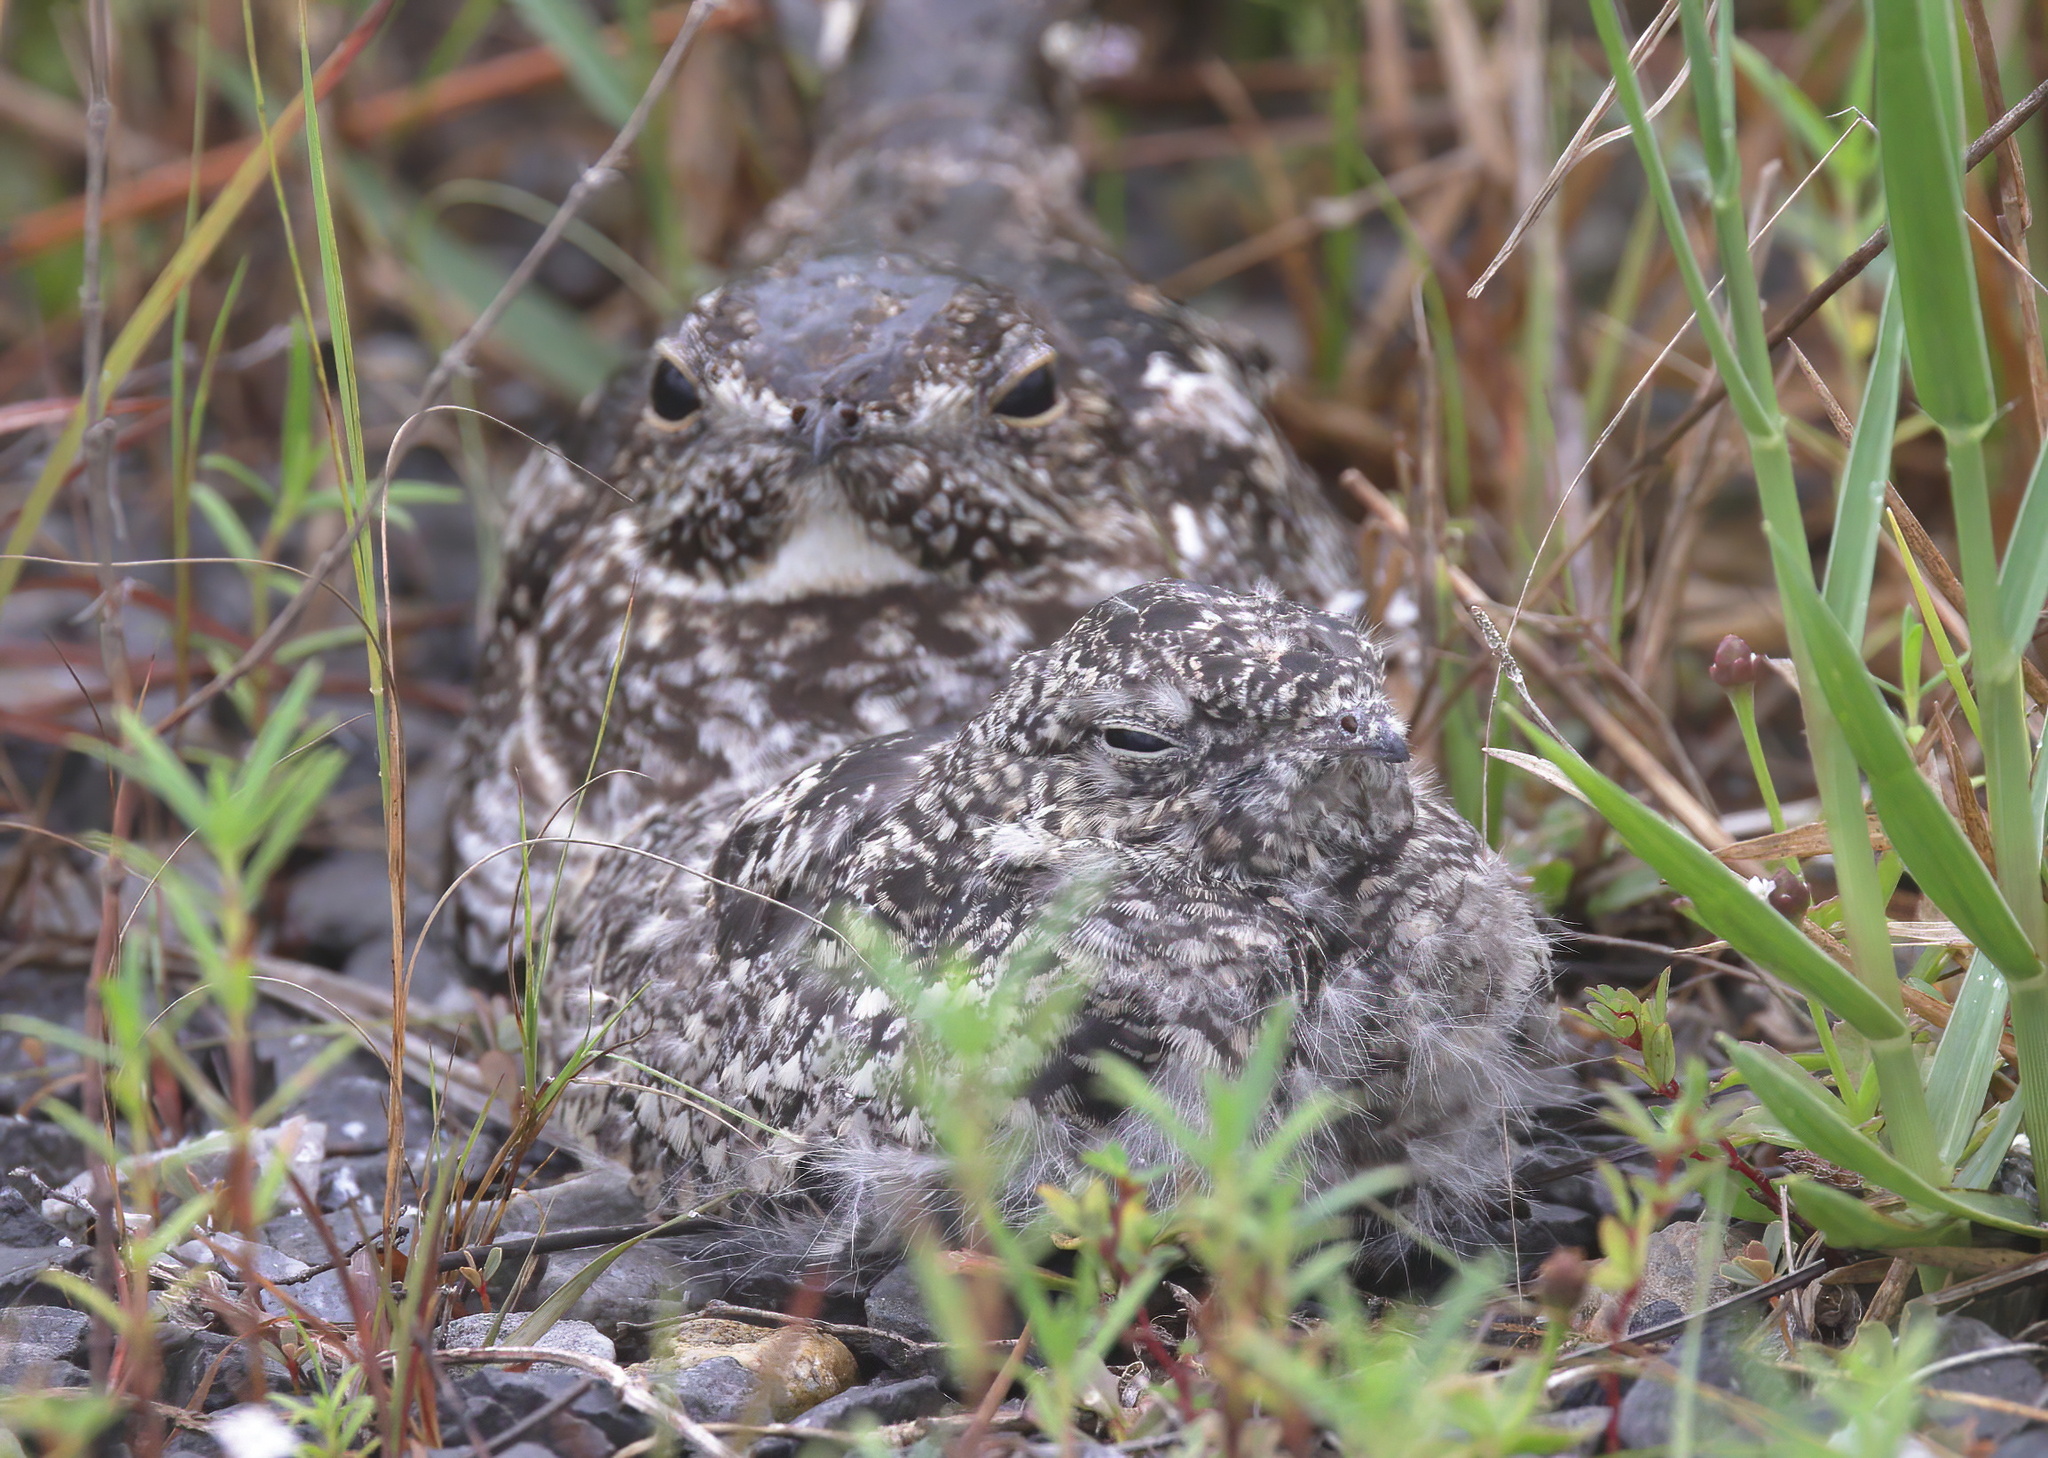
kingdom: Animalia
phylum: Chordata
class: Aves
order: Caprimulgiformes
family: Caprimulgidae
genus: Chordeiles
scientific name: Chordeiles minor
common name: Common nighthawk
